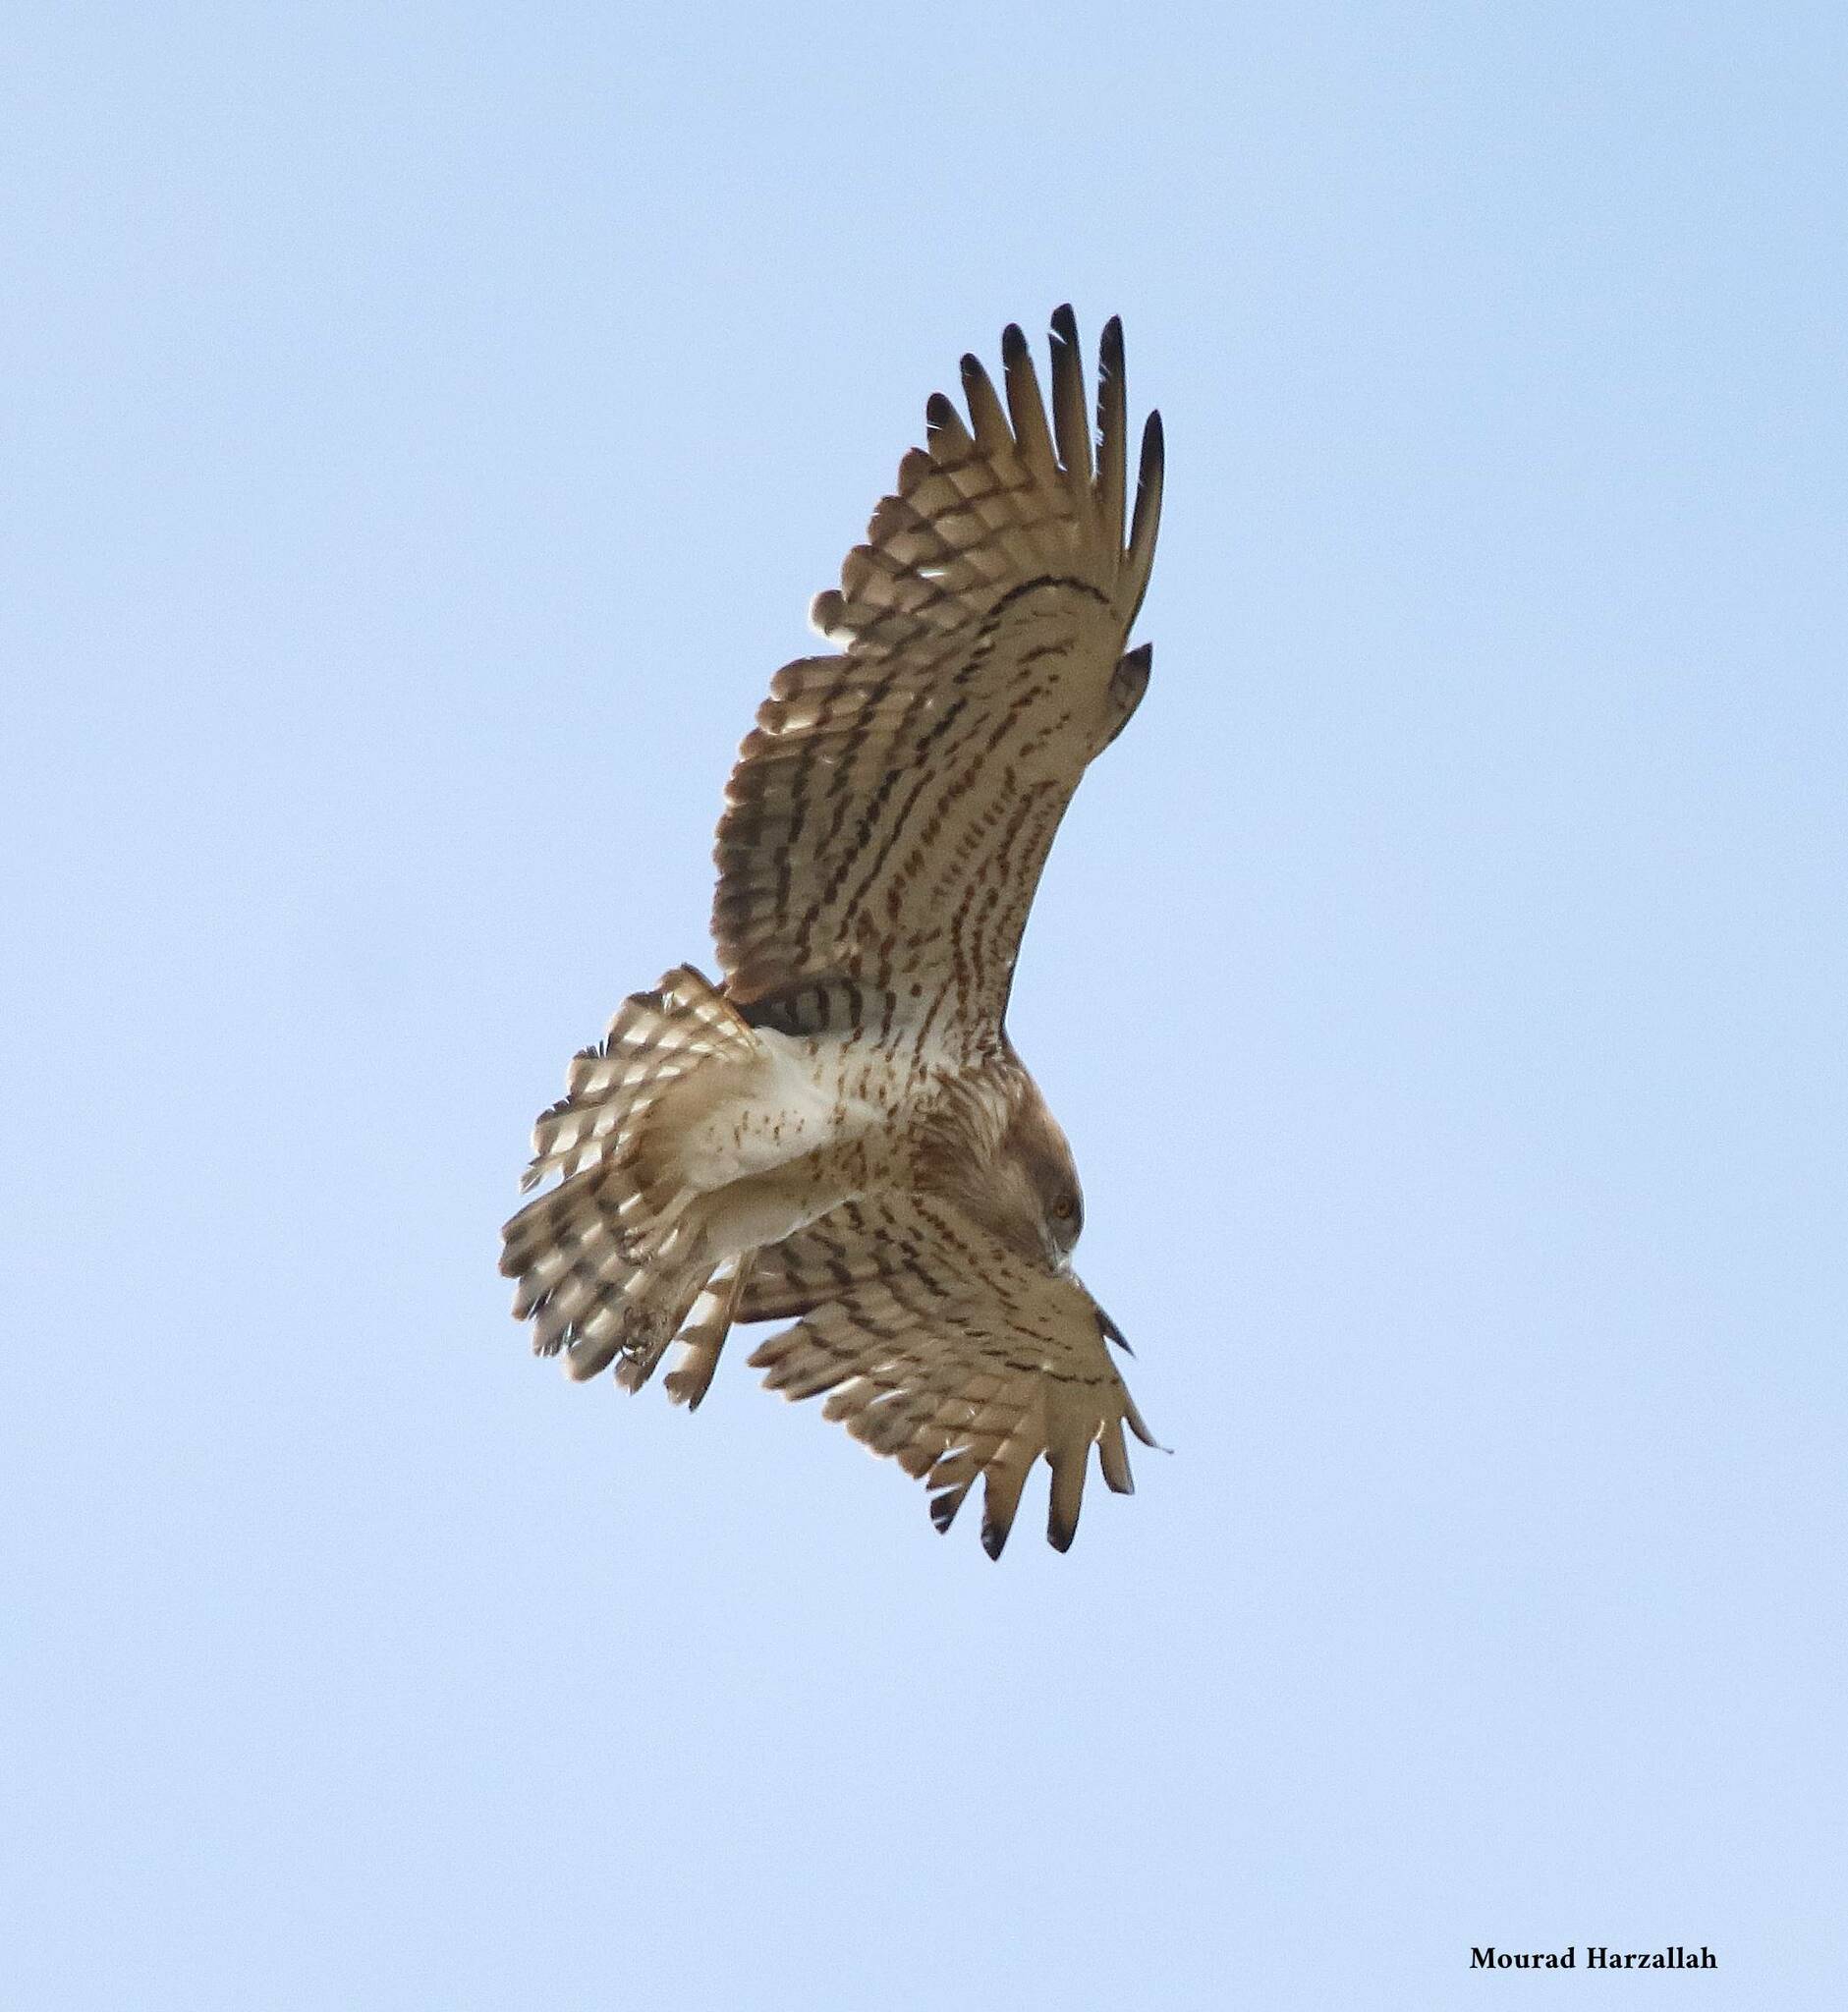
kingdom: Animalia
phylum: Chordata
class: Aves
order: Accipitriformes
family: Accipitridae
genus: Circaetus
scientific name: Circaetus gallicus
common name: Short-toed snake eagle
